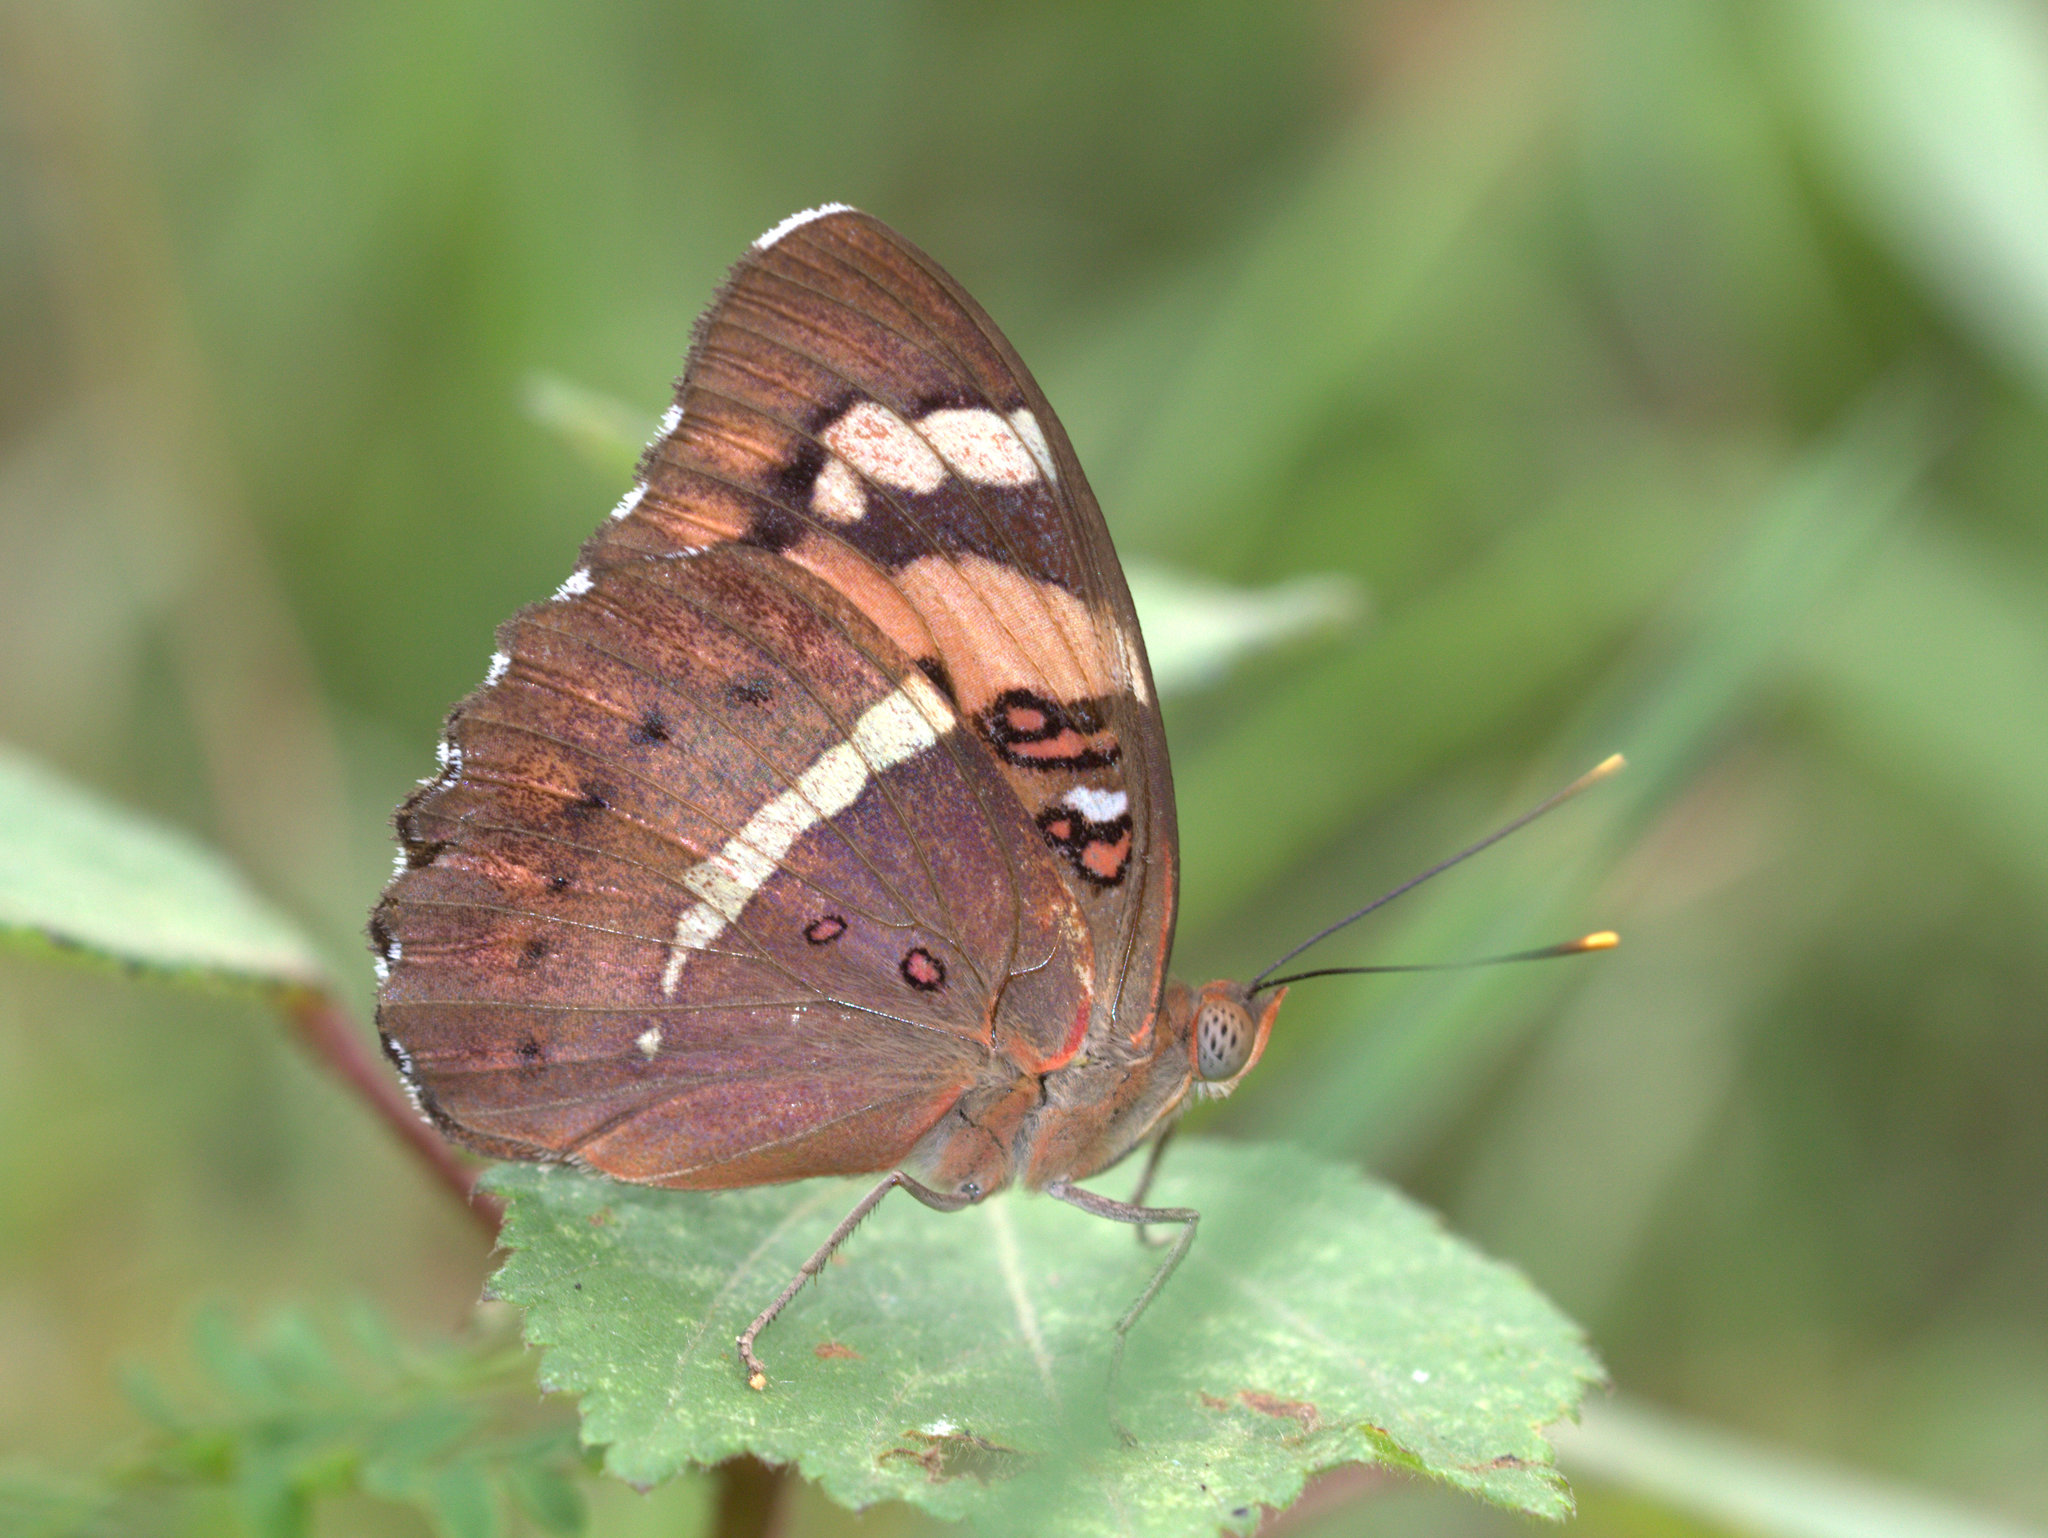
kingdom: Animalia
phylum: Arthropoda
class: Insecta
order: Lepidoptera
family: Nymphalidae
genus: Euthalia
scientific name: Euthalia nais
